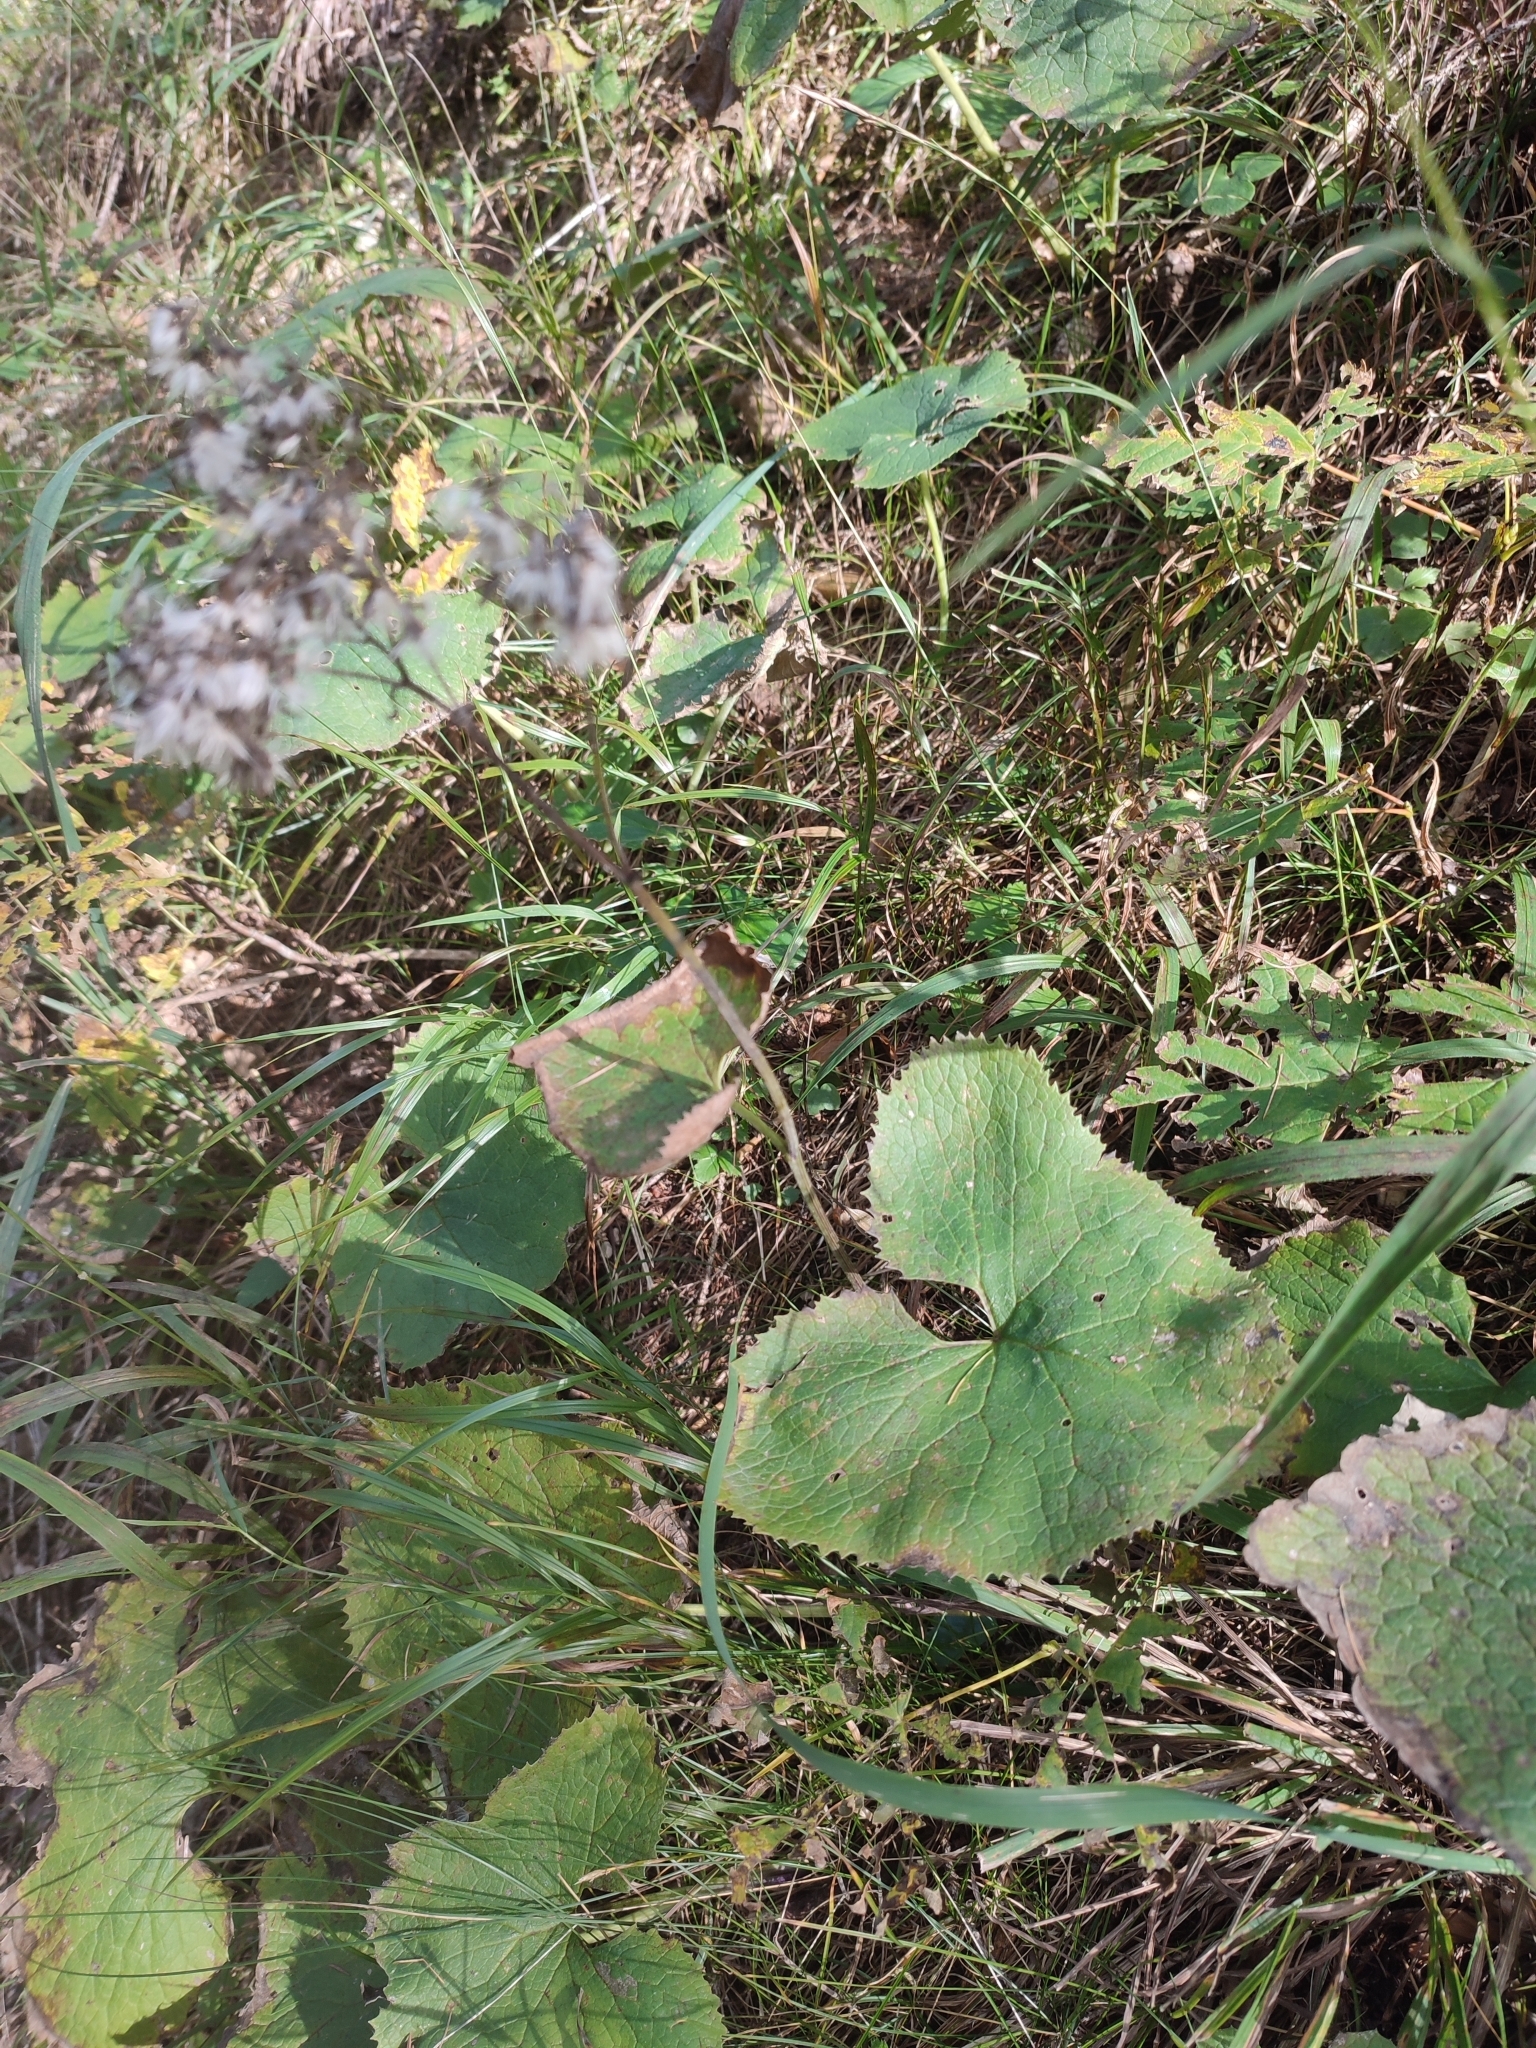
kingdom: Plantae
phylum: Tracheophyta
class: Magnoliopsida
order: Asterales
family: Asteraceae
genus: Adenostyles
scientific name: Adenostyles alpina
